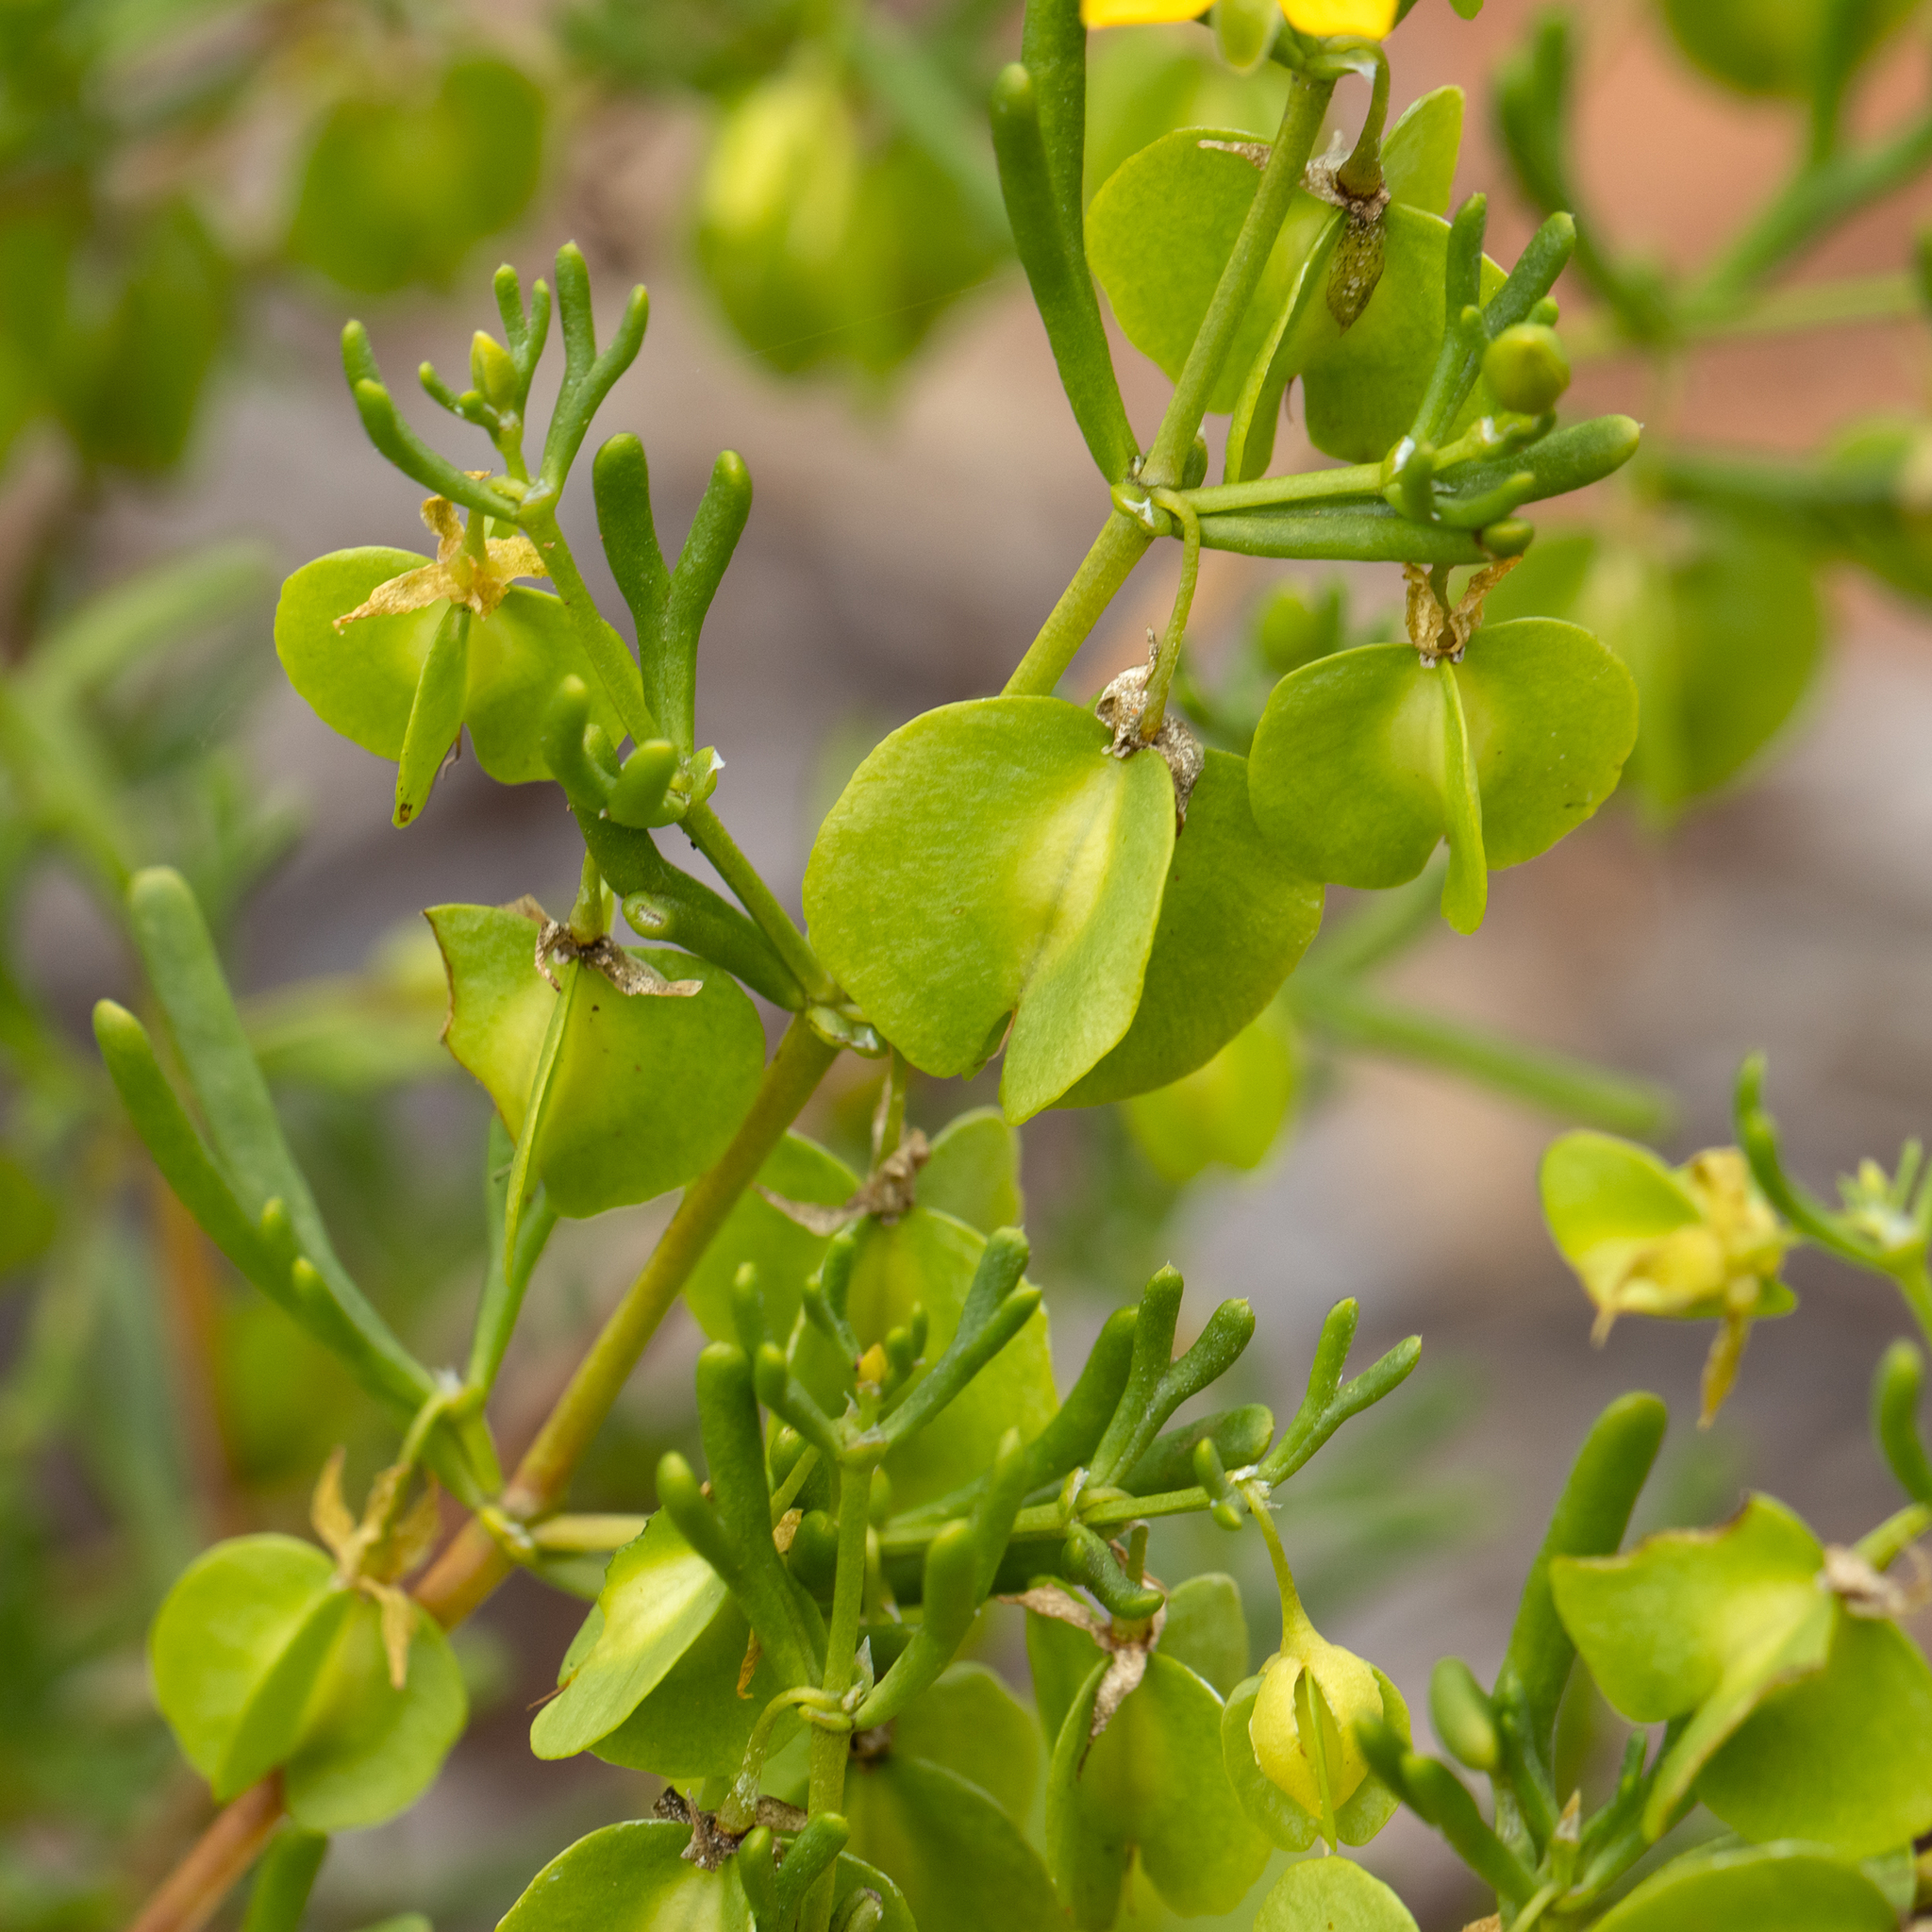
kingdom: Plantae
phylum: Tracheophyta
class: Magnoliopsida
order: Zygophyllales
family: Zygophyllaceae
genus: Roepera
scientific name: Roepera aurantiaca
